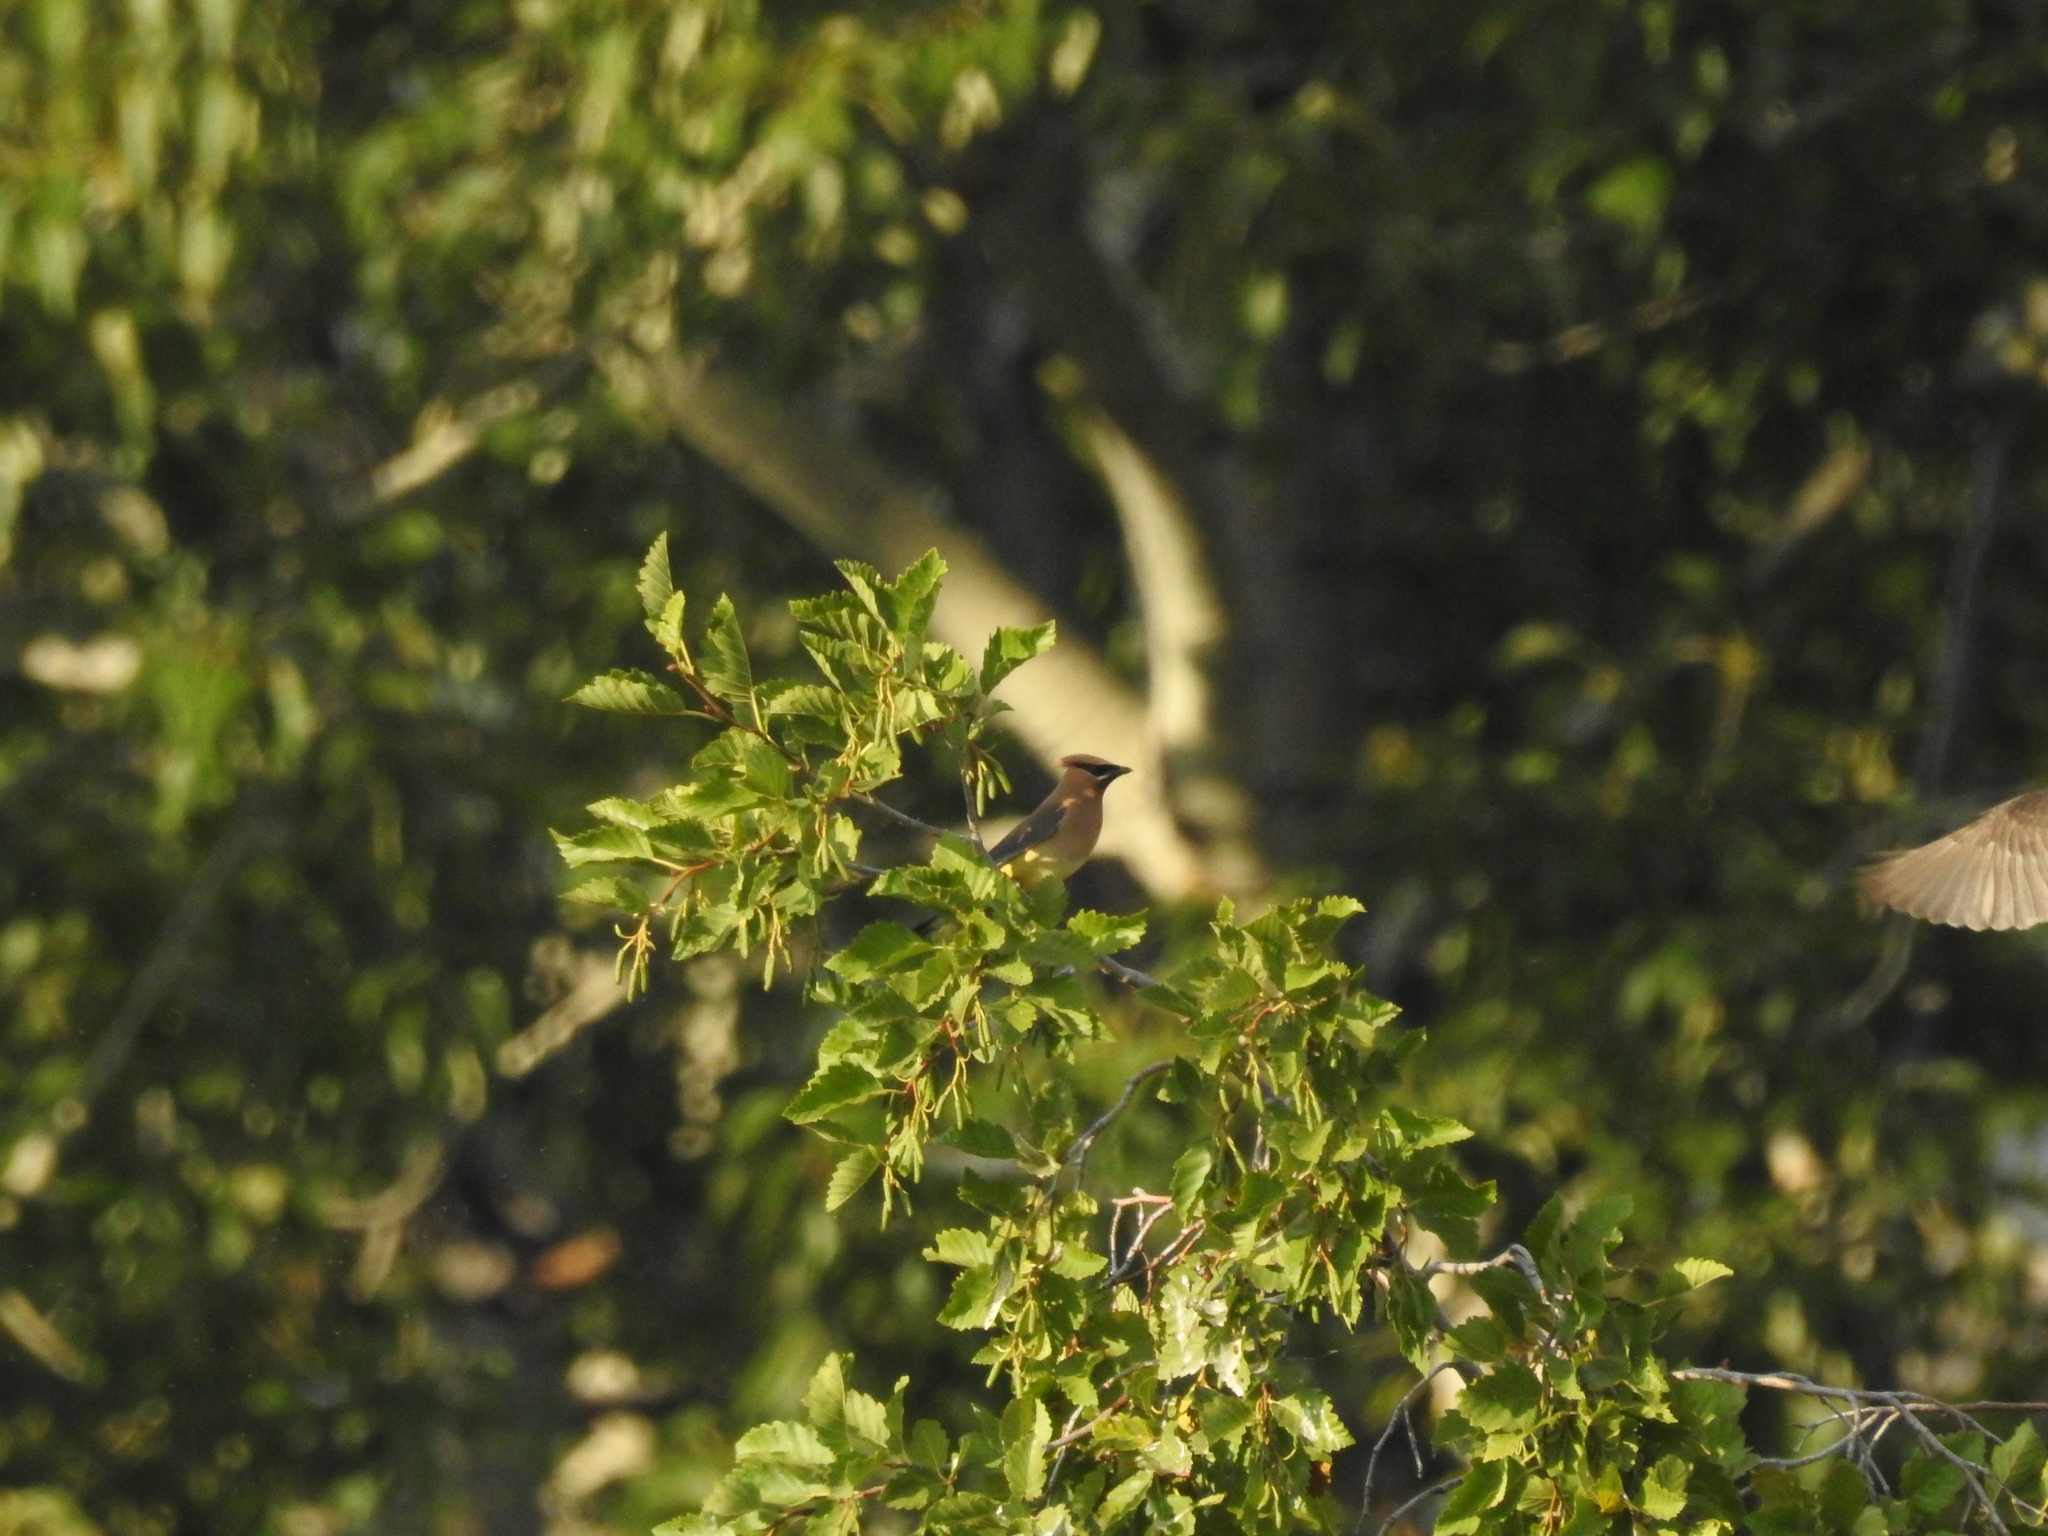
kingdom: Animalia
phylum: Chordata
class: Aves
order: Passeriformes
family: Bombycillidae
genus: Bombycilla
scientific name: Bombycilla cedrorum
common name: Cedar waxwing
